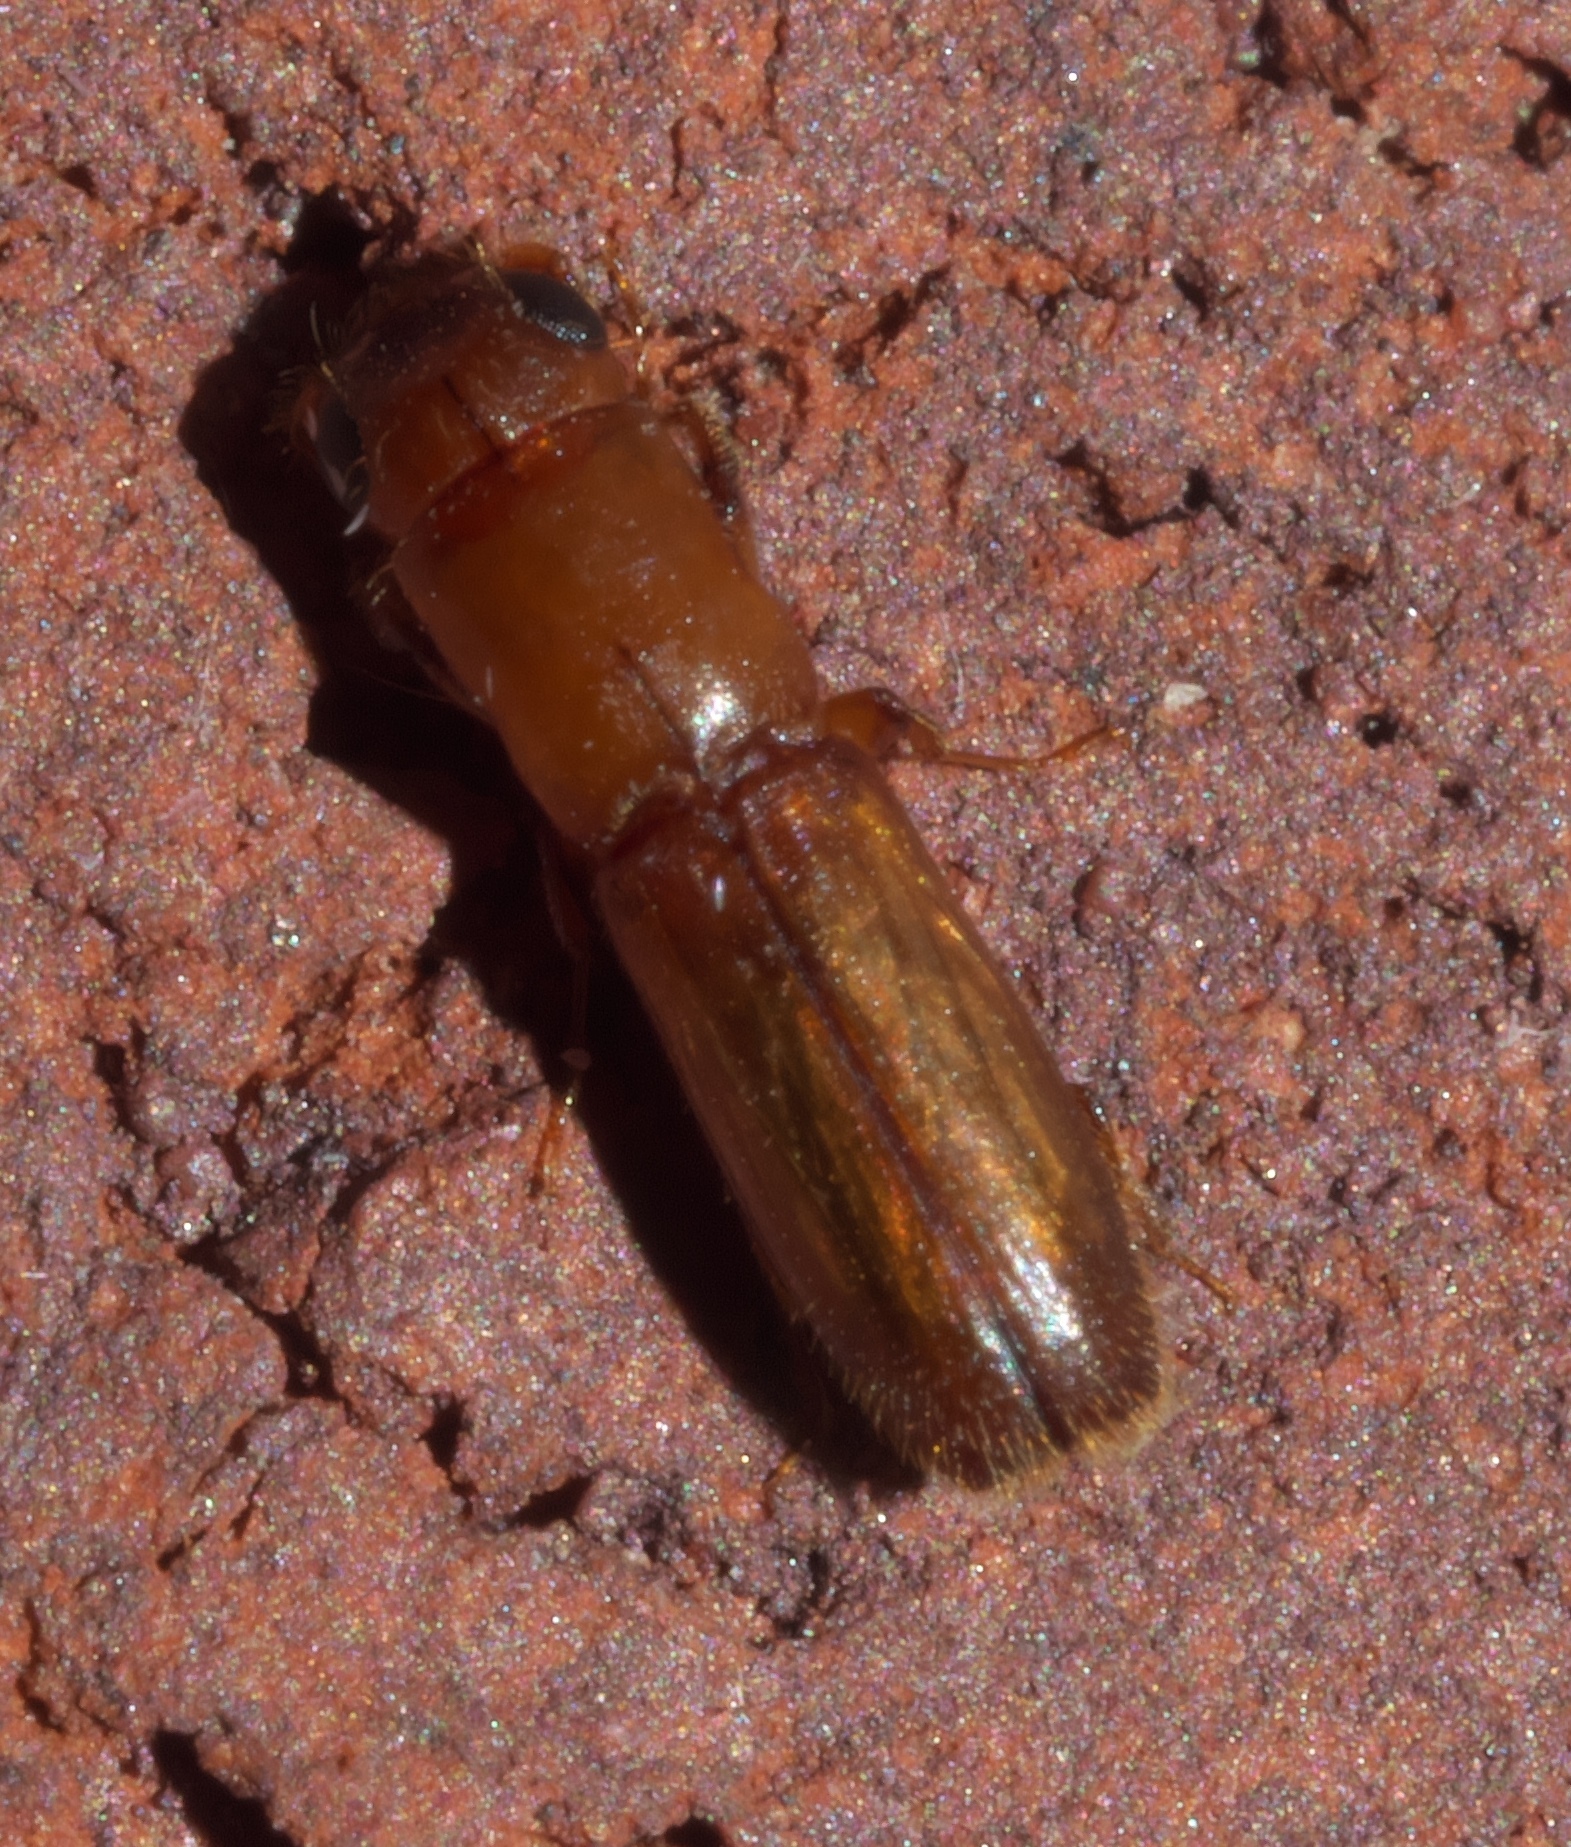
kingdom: Animalia
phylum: Arthropoda
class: Insecta
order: Coleoptera
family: Curculionidae
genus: Euplatypus
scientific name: Euplatypus compositus
